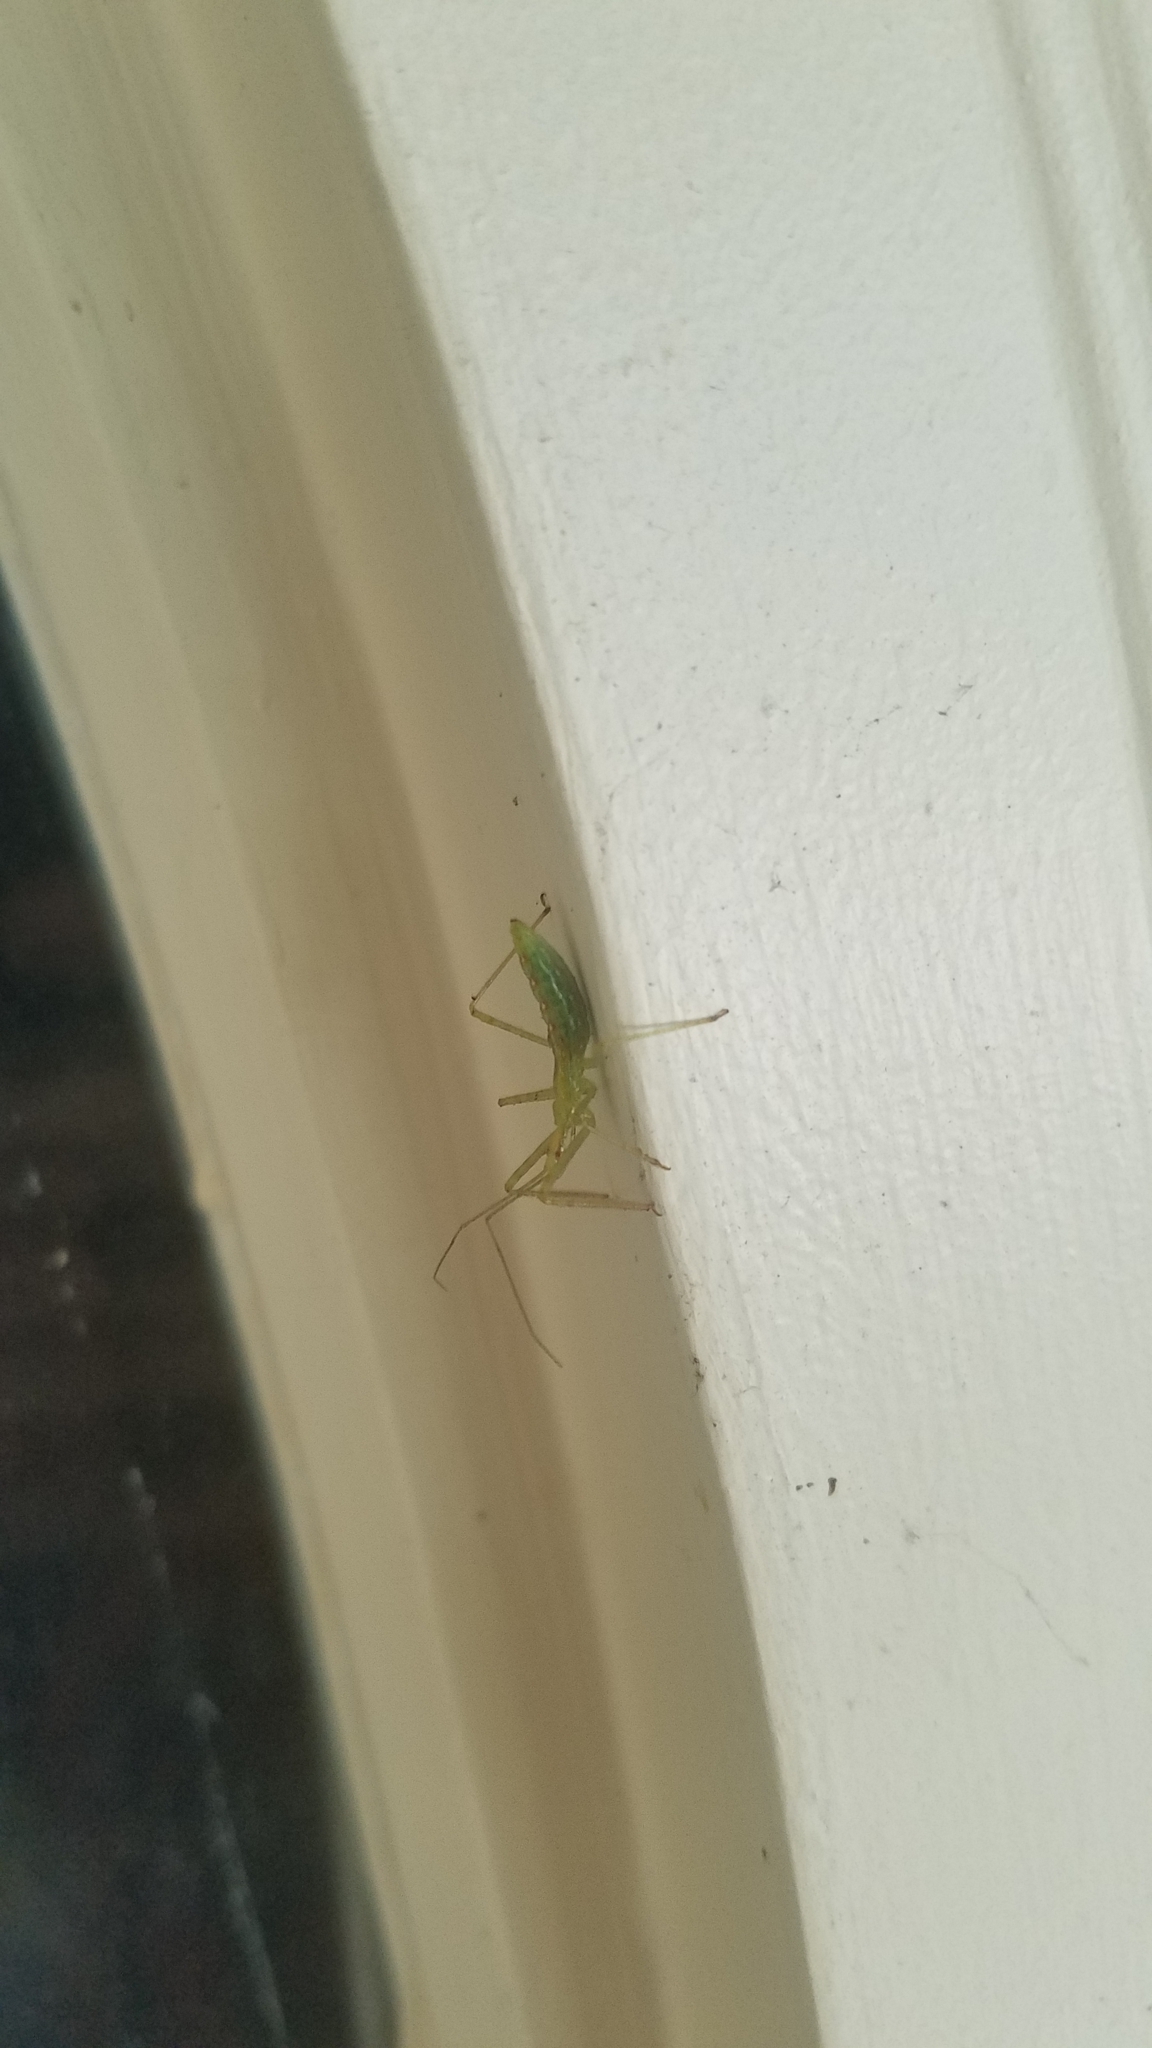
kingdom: Animalia
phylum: Arthropoda
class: Insecta
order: Hemiptera
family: Reduviidae
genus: Zelus
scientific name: Zelus luridus
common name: Pale green assassin bug
